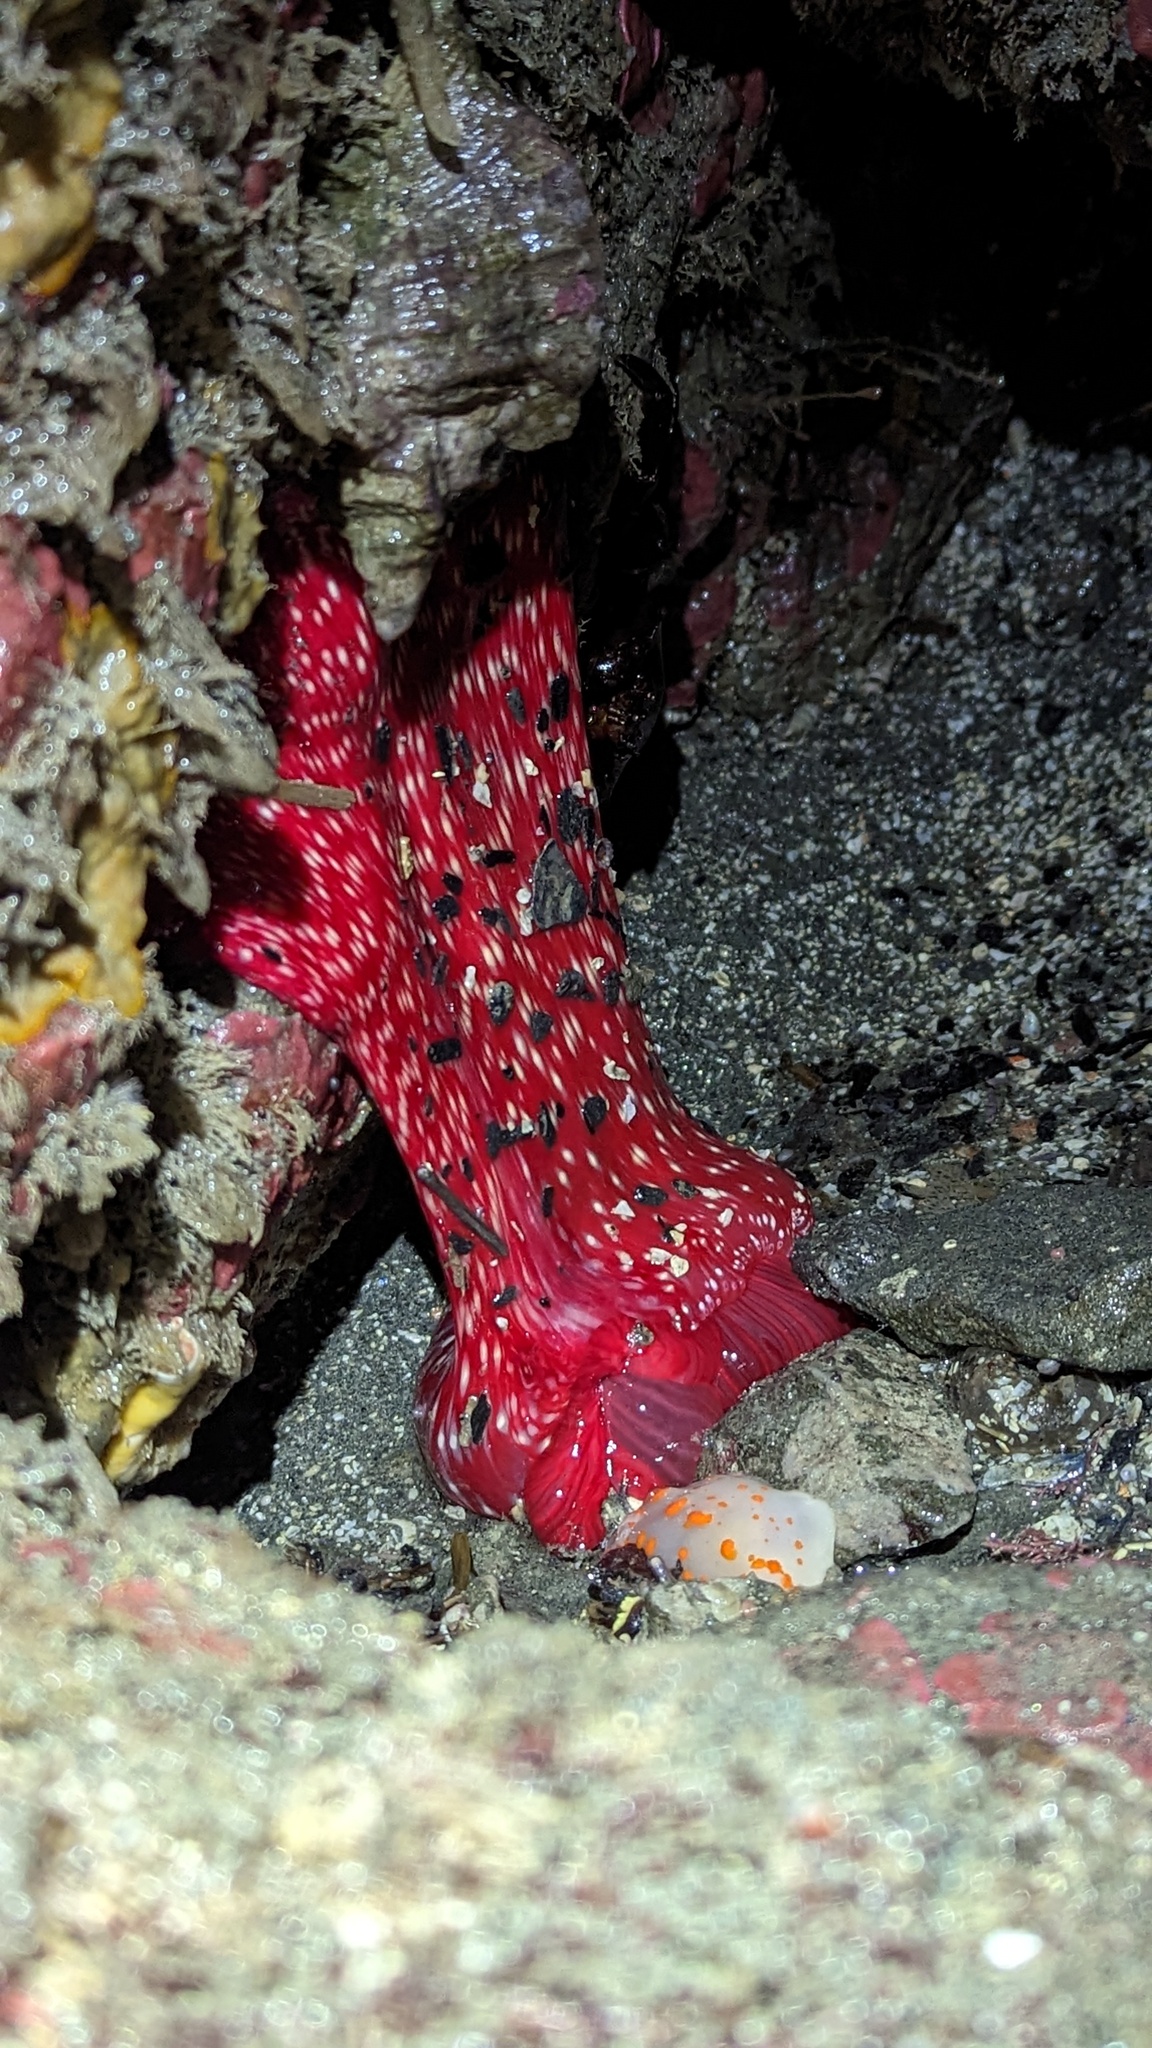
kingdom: Animalia
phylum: Cnidaria
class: Anthozoa
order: Actiniaria
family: Actiniidae
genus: Cribrinopsis
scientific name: Cribrinopsis albopunctata
